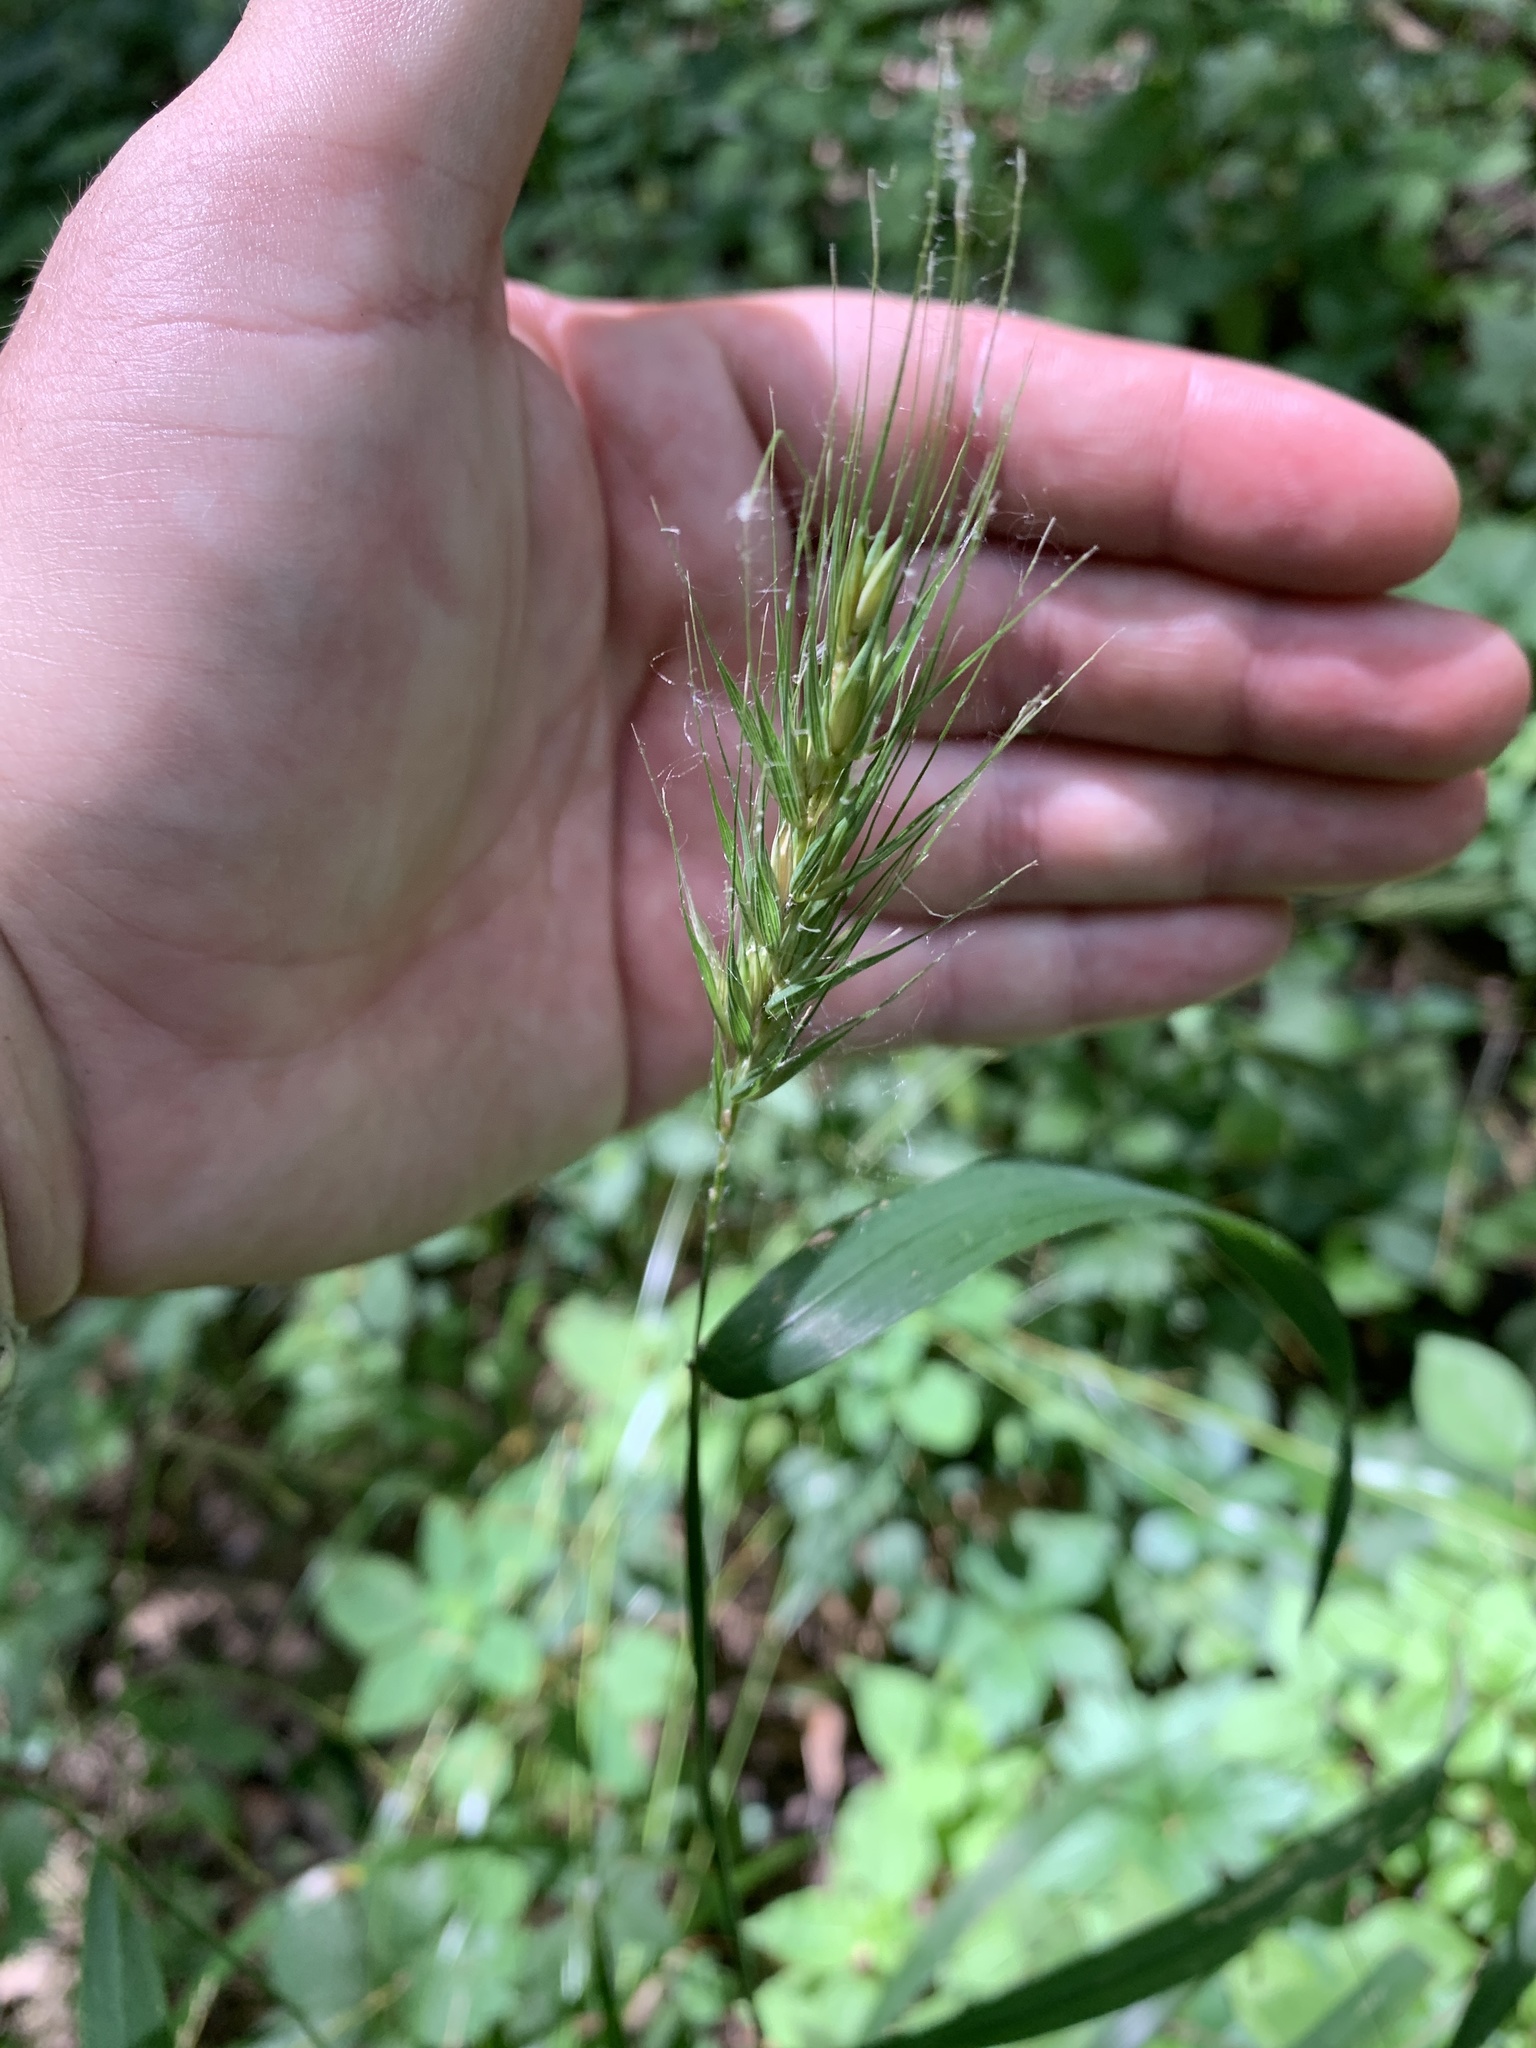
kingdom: Plantae
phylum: Tracheophyta
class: Liliopsida
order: Poales
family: Poaceae
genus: Elymus
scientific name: Elymus macgregorii
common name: Early wild rye
